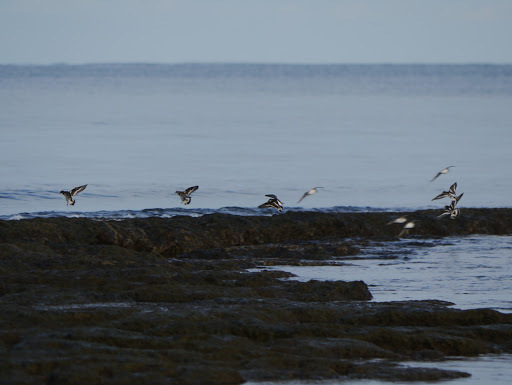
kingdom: Animalia
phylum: Chordata
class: Aves
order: Charadriiformes
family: Scolopacidae
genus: Arenaria
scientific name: Arenaria interpres
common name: Ruddy turnstone
